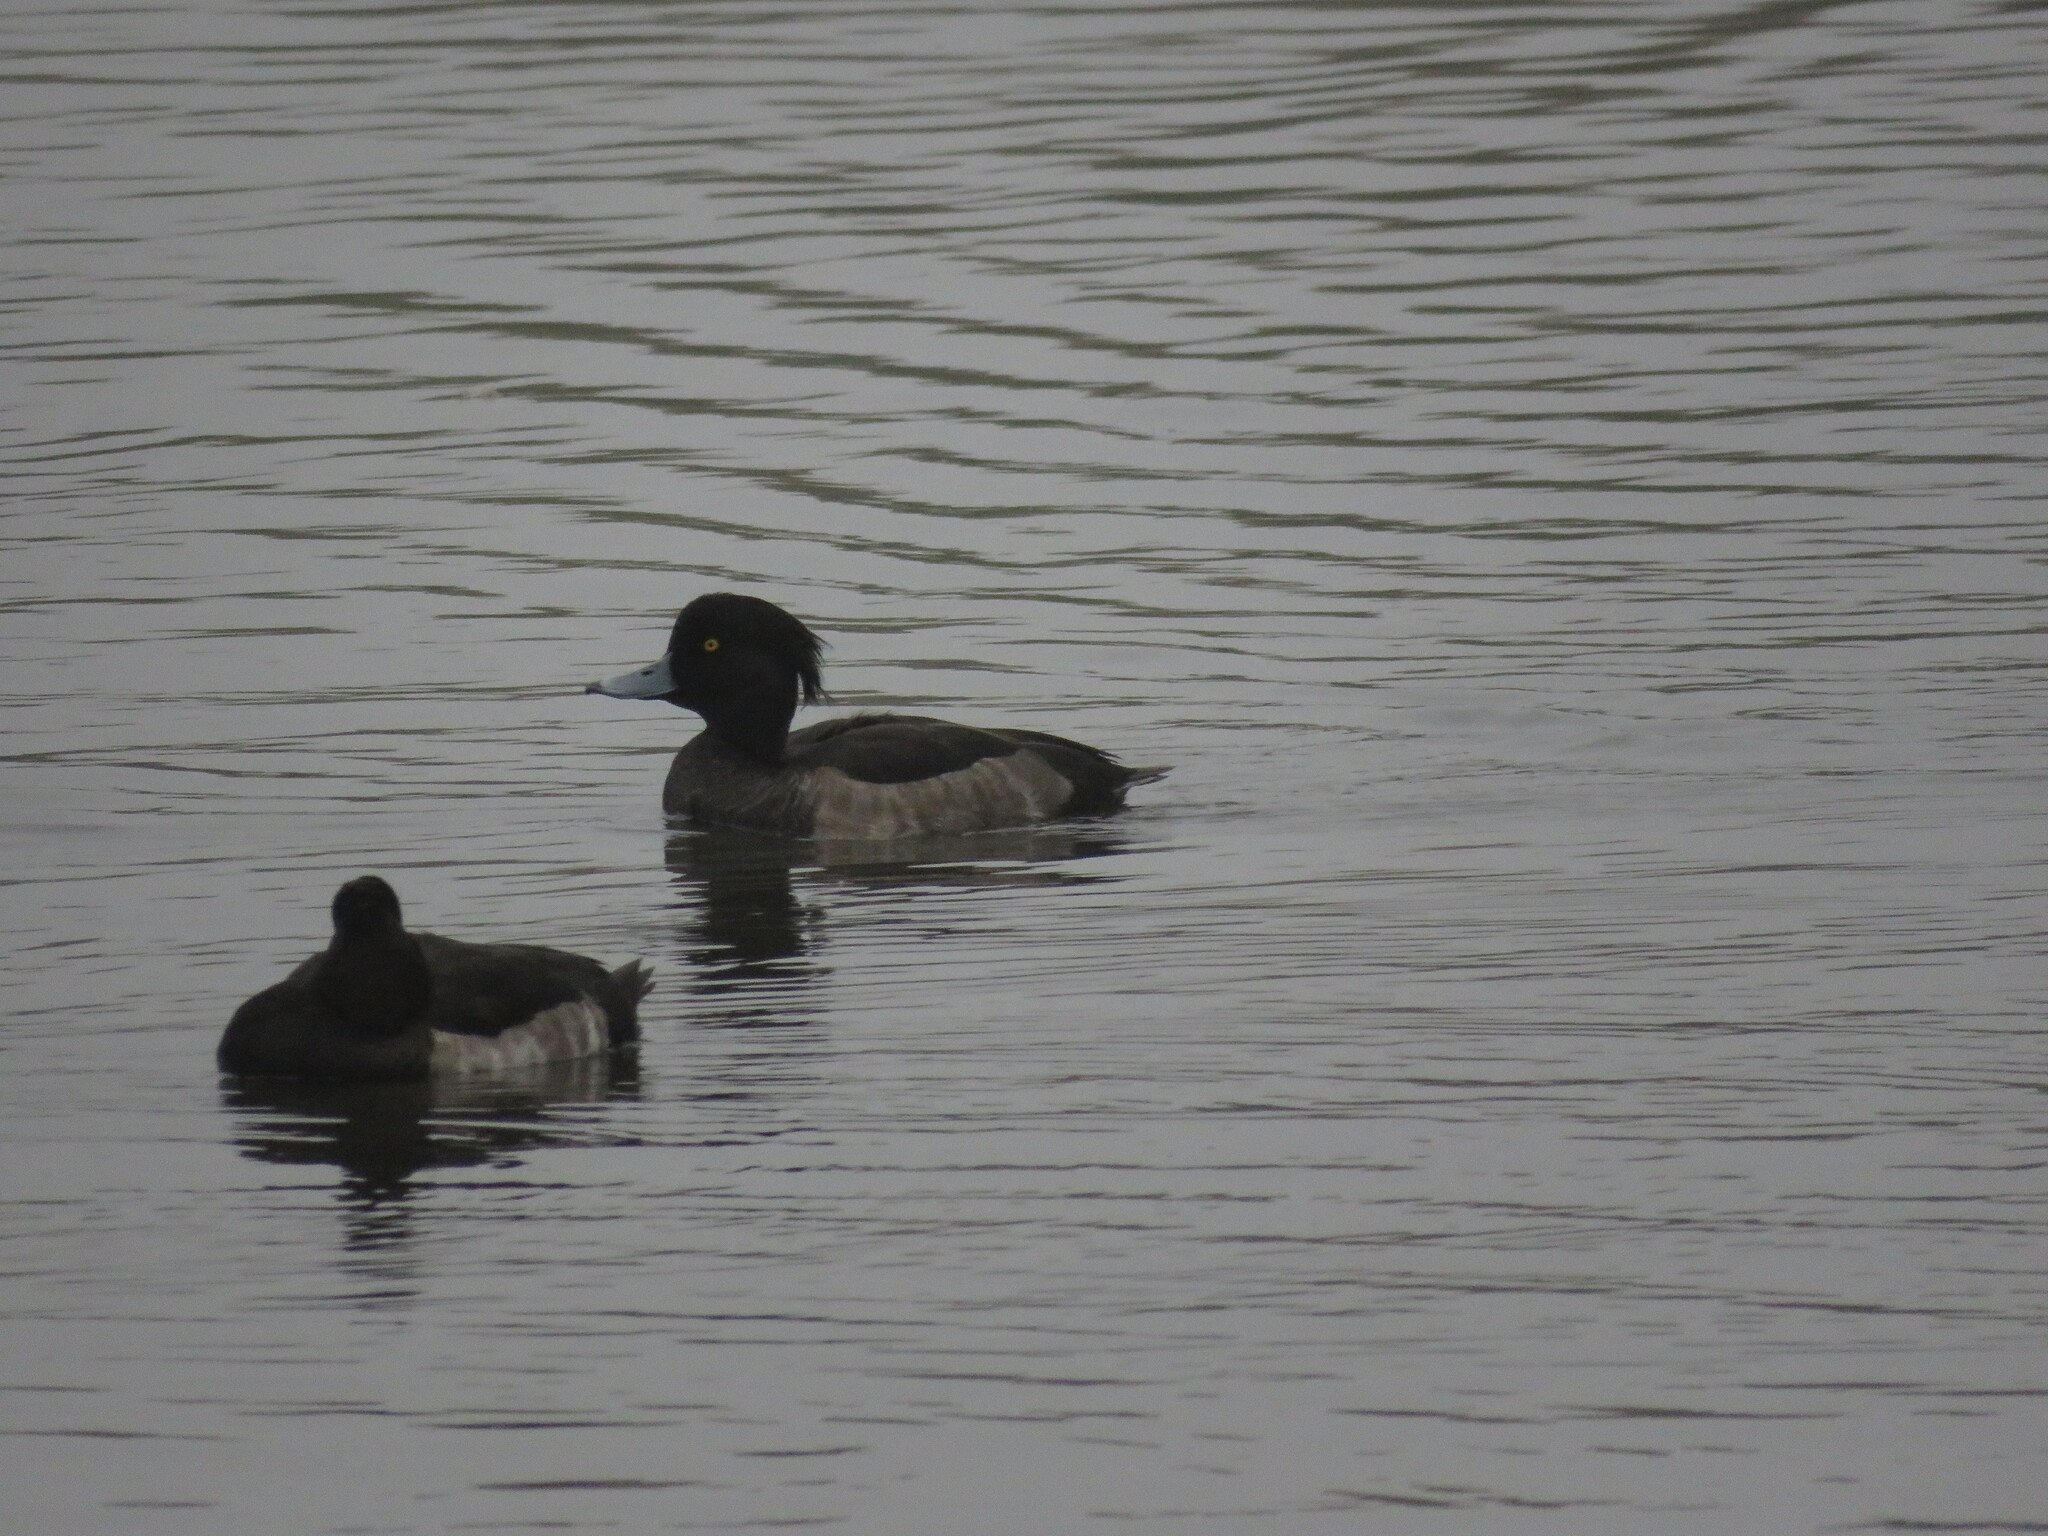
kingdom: Animalia
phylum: Chordata
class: Aves
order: Anseriformes
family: Anatidae
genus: Aythya
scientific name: Aythya fuligula
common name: Tufted duck
